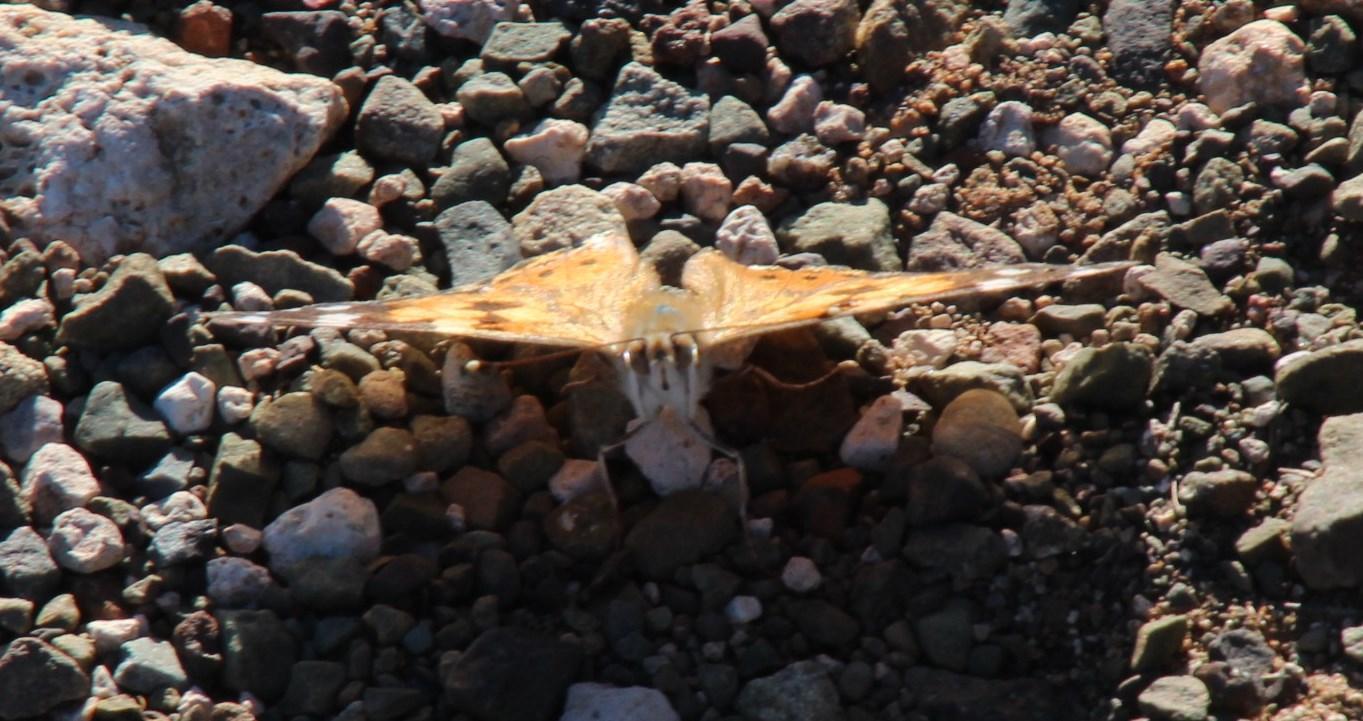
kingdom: Animalia
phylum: Arthropoda
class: Insecta
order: Lepidoptera
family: Nymphalidae
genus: Vanessa
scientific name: Vanessa cardui
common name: Painted lady
